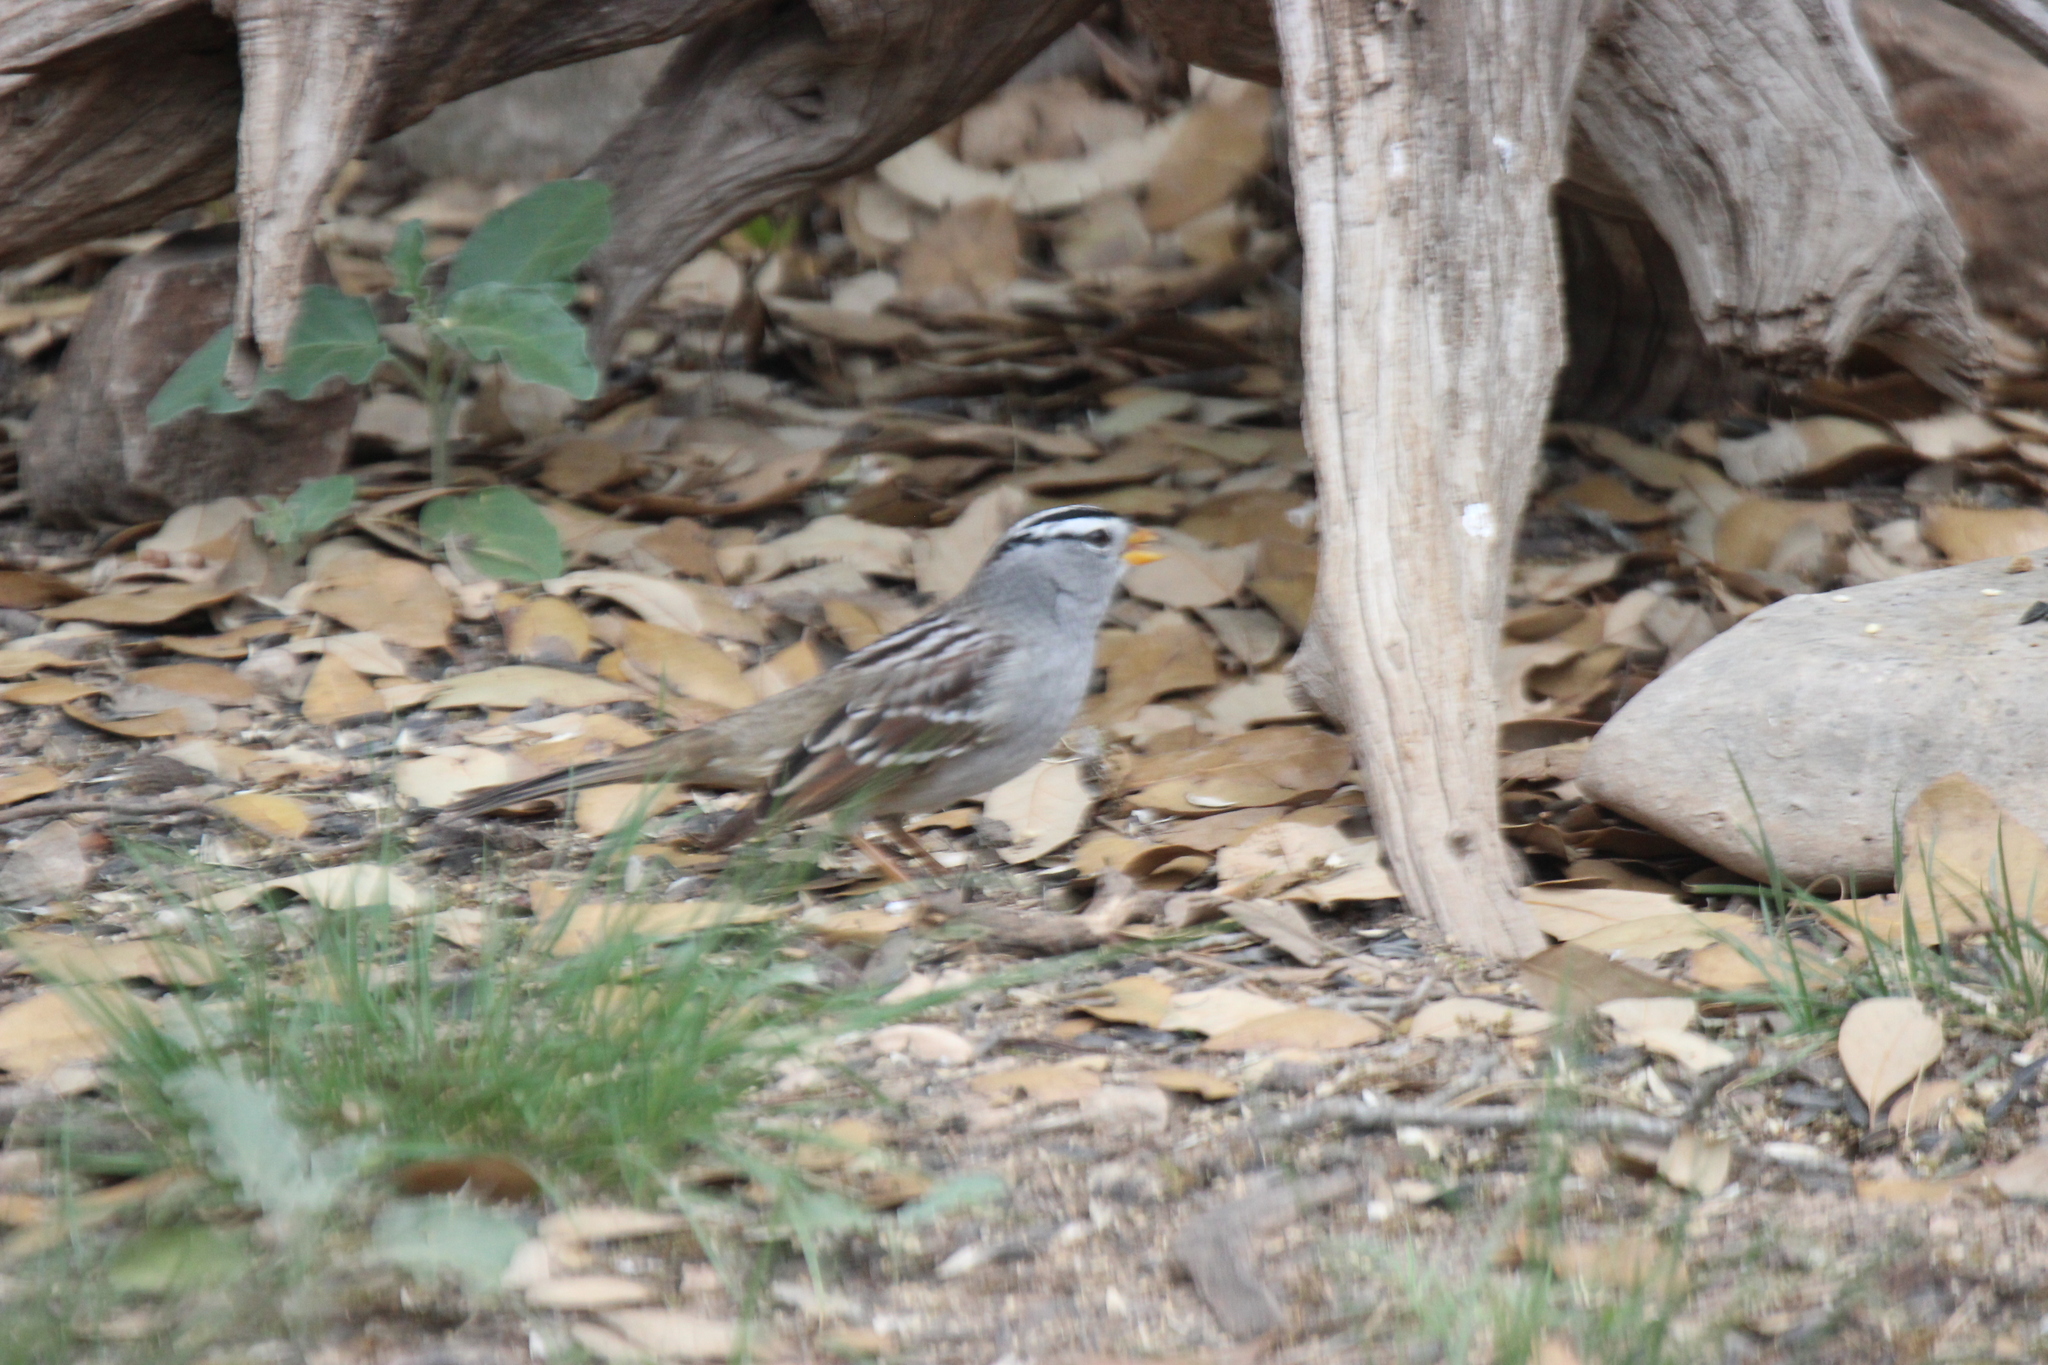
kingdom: Animalia
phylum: Chordata
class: Aves
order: Passeriformes
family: Passerellidae
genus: Zonotrichia
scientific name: Zonotrichia leucophrys
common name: White-crowned sparrow
